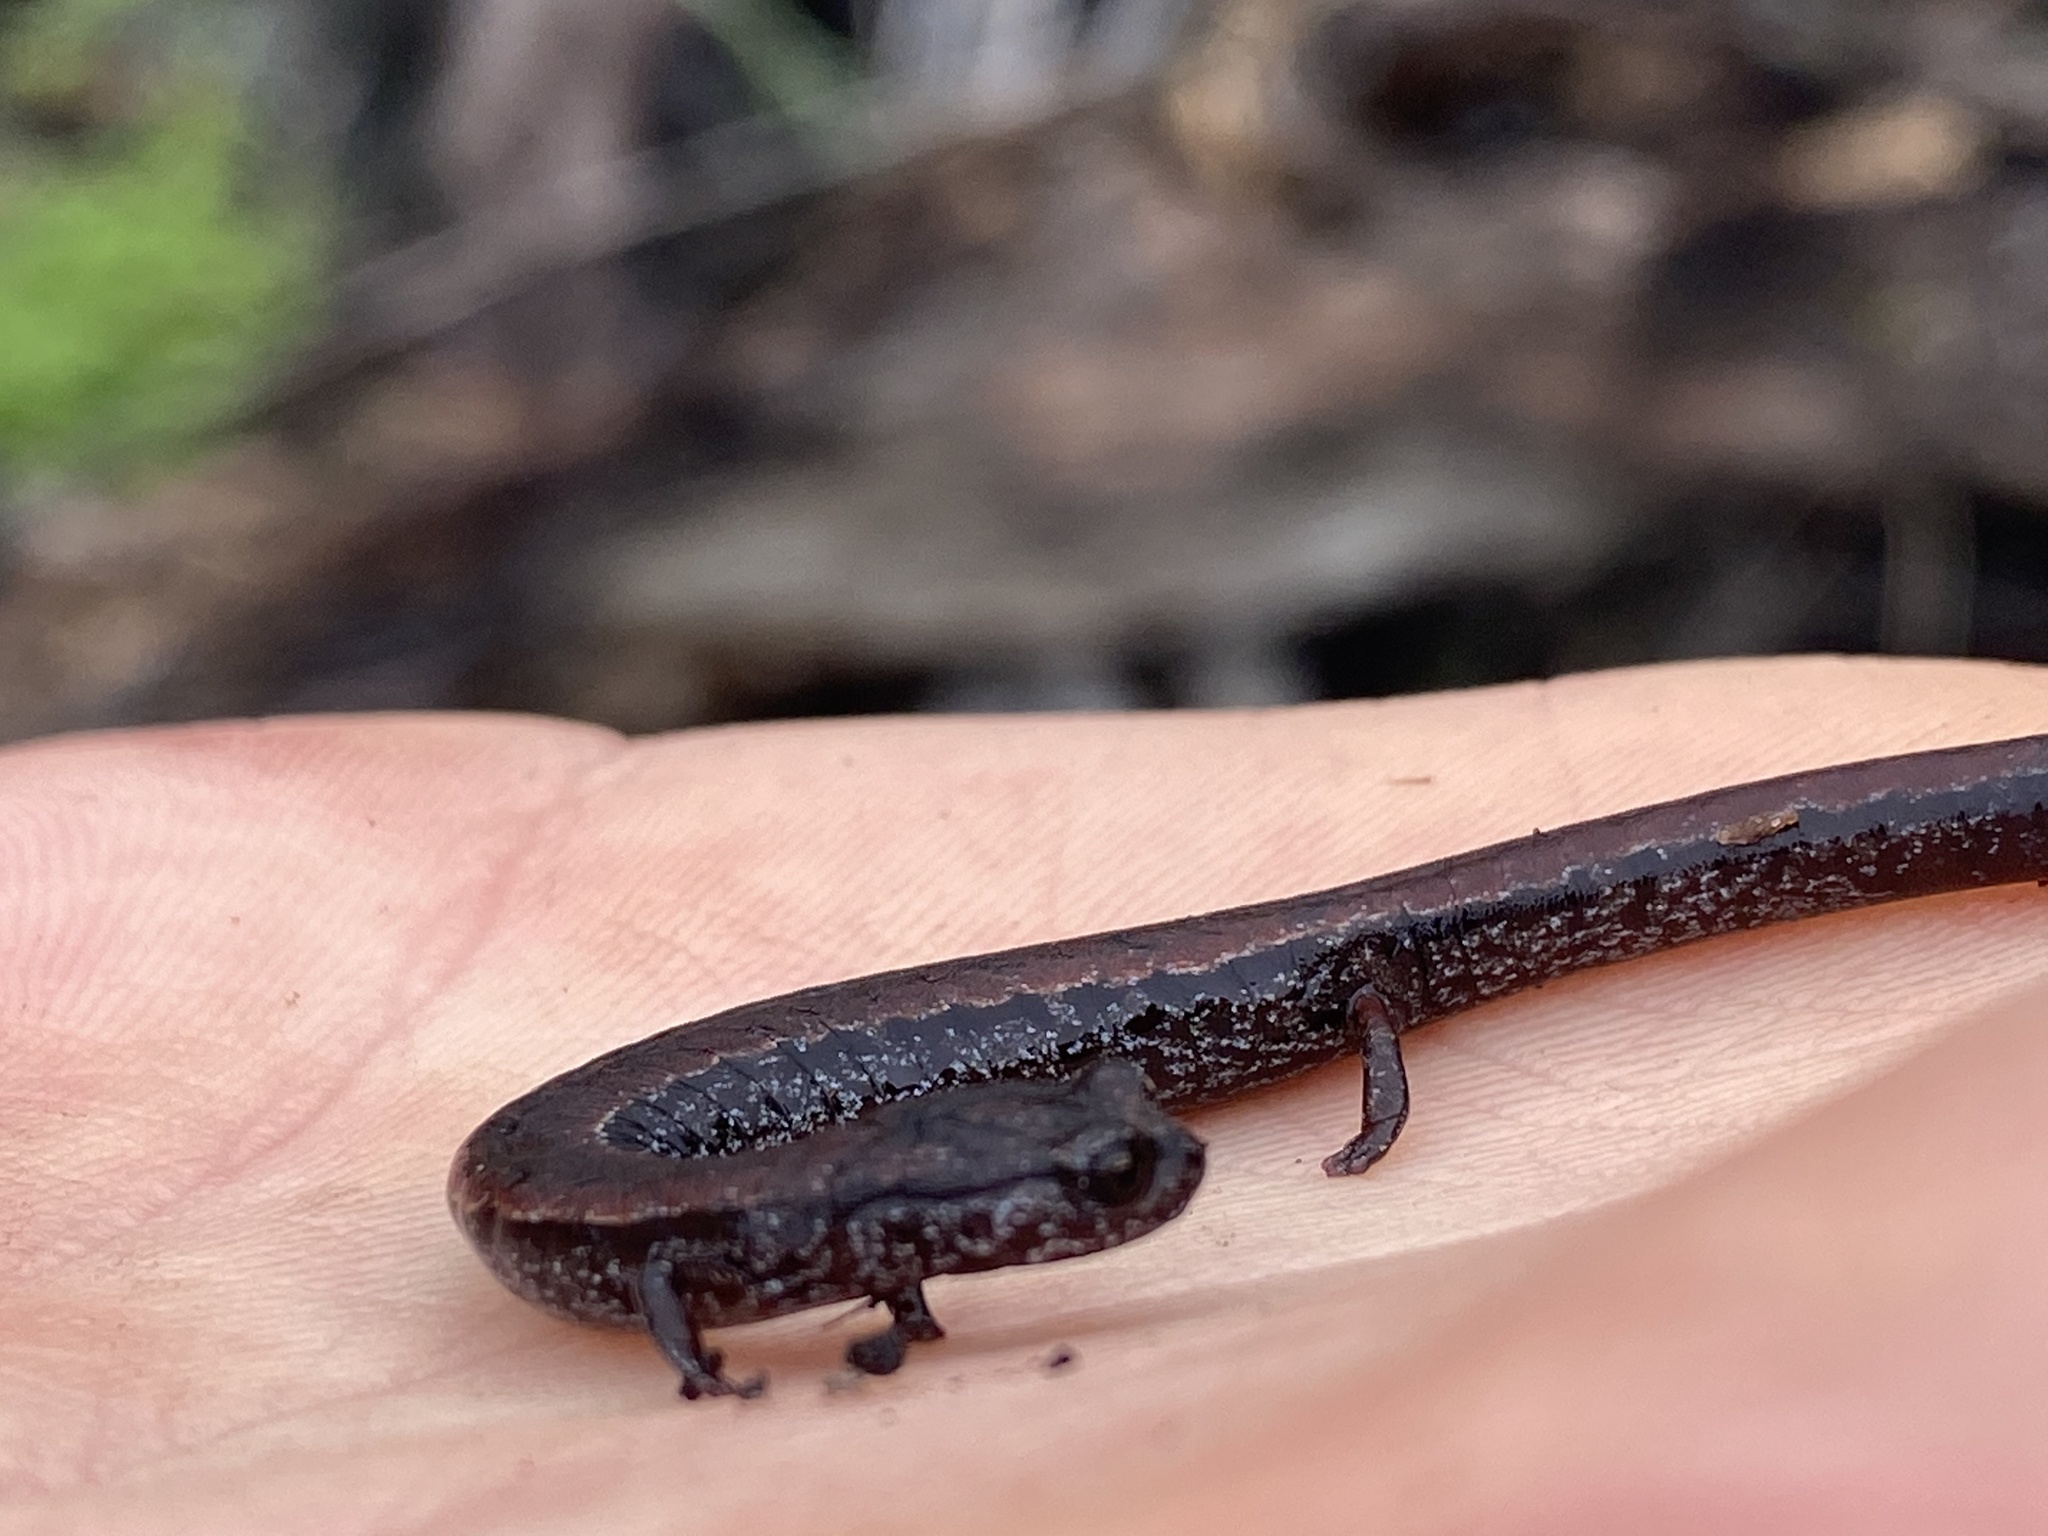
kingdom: Animalia
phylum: Chordata
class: Amphibia
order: Caudata
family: Plethodontidae
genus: Batrachoseps
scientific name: Batrachoseps attenuatus
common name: California slender salamander
